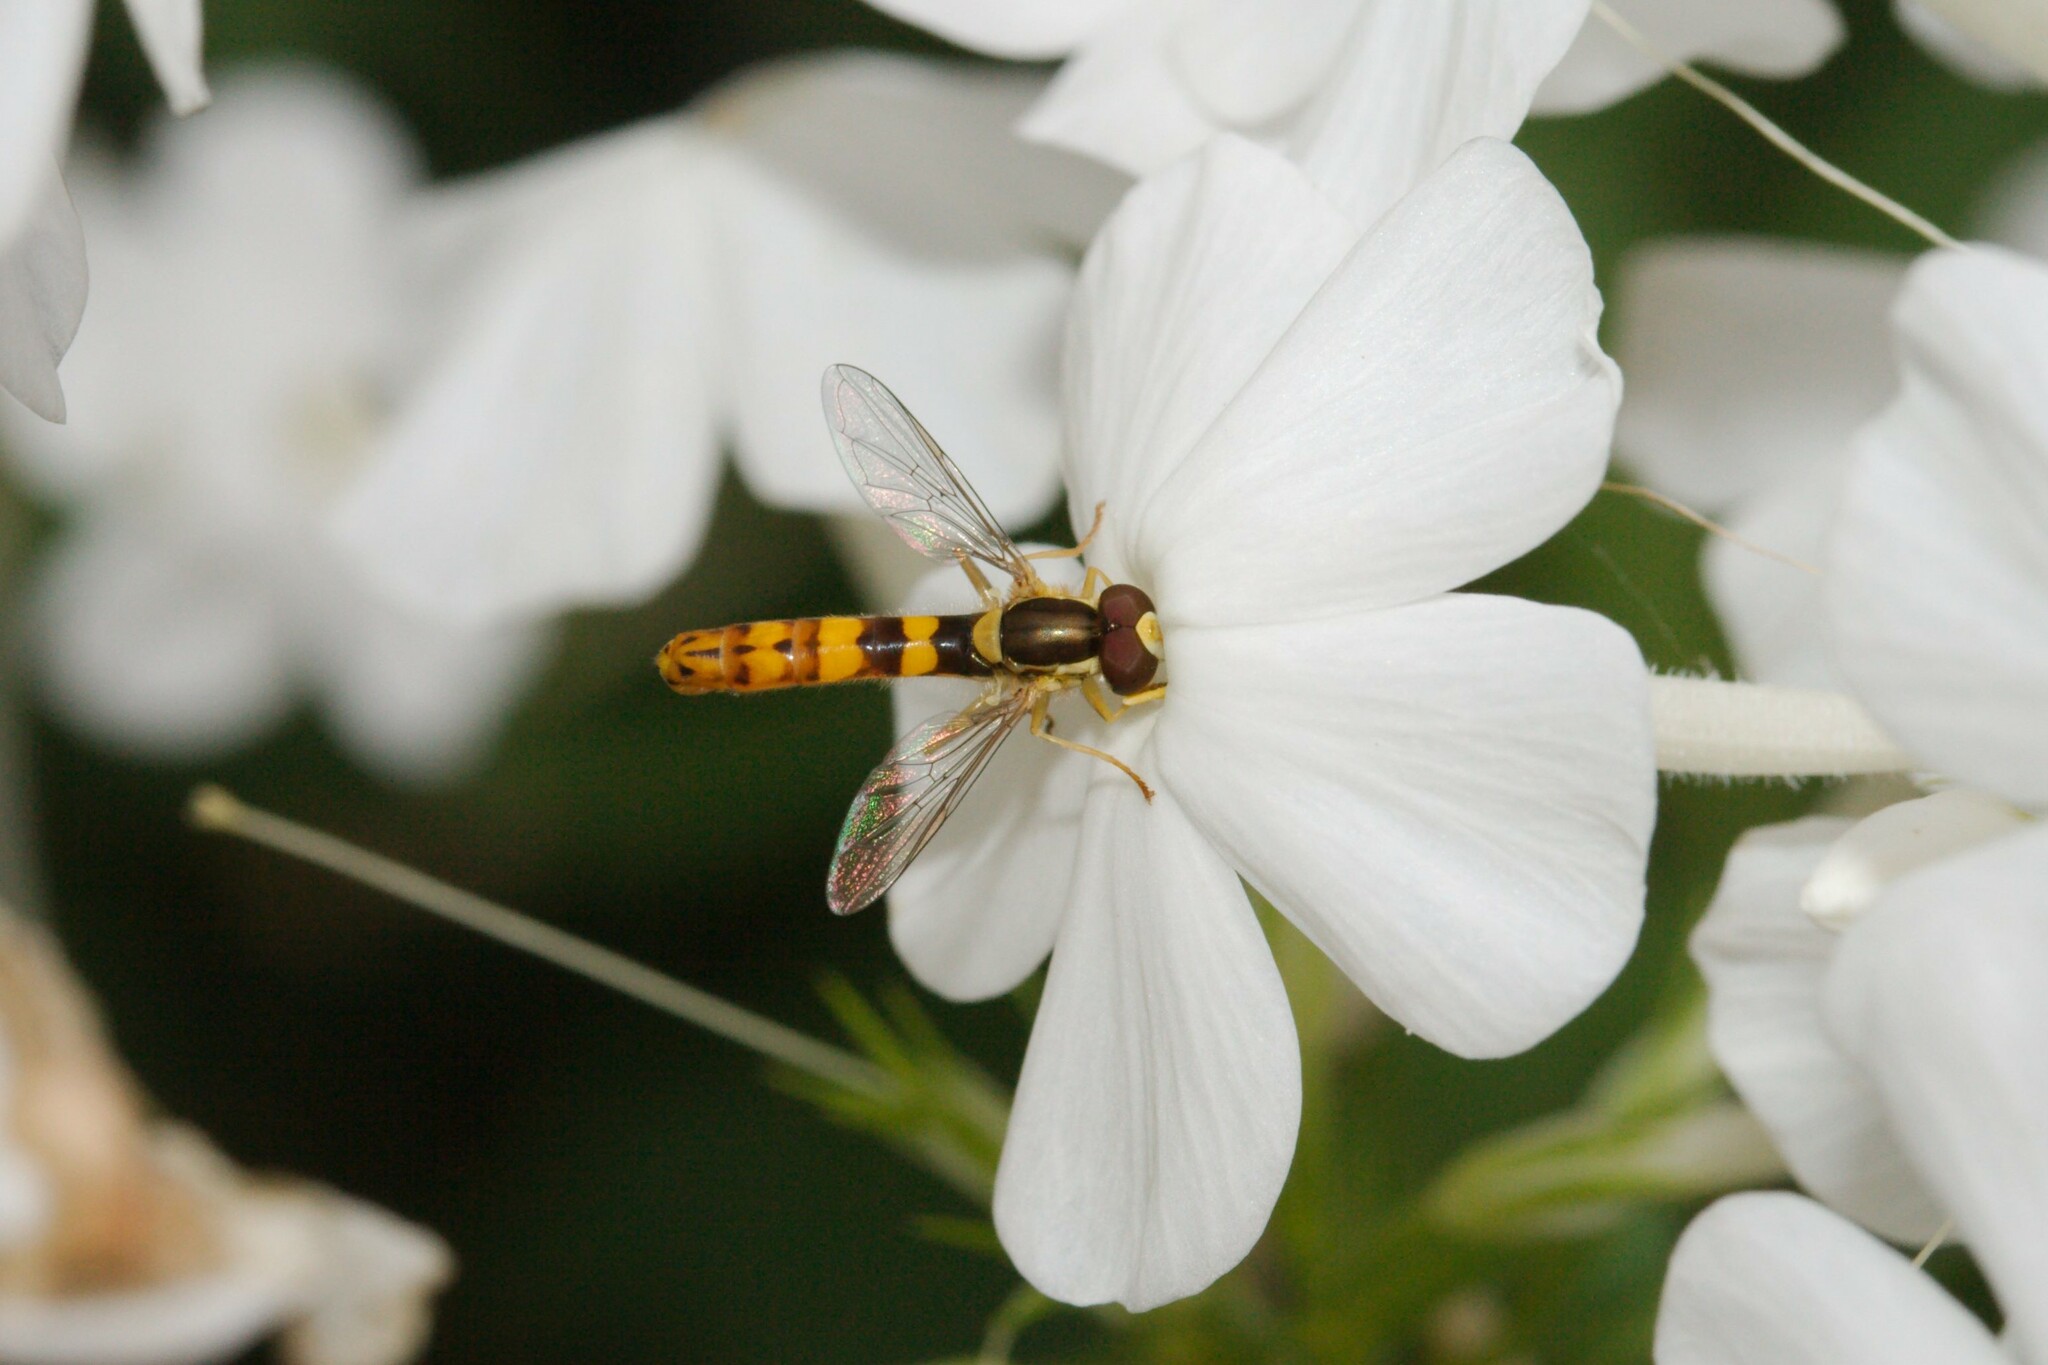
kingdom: Animalia
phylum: Arthropoda
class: Insecta
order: Diptera
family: Syrphidae
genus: Sphaerophoria
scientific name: Sphaerophoria scripta
